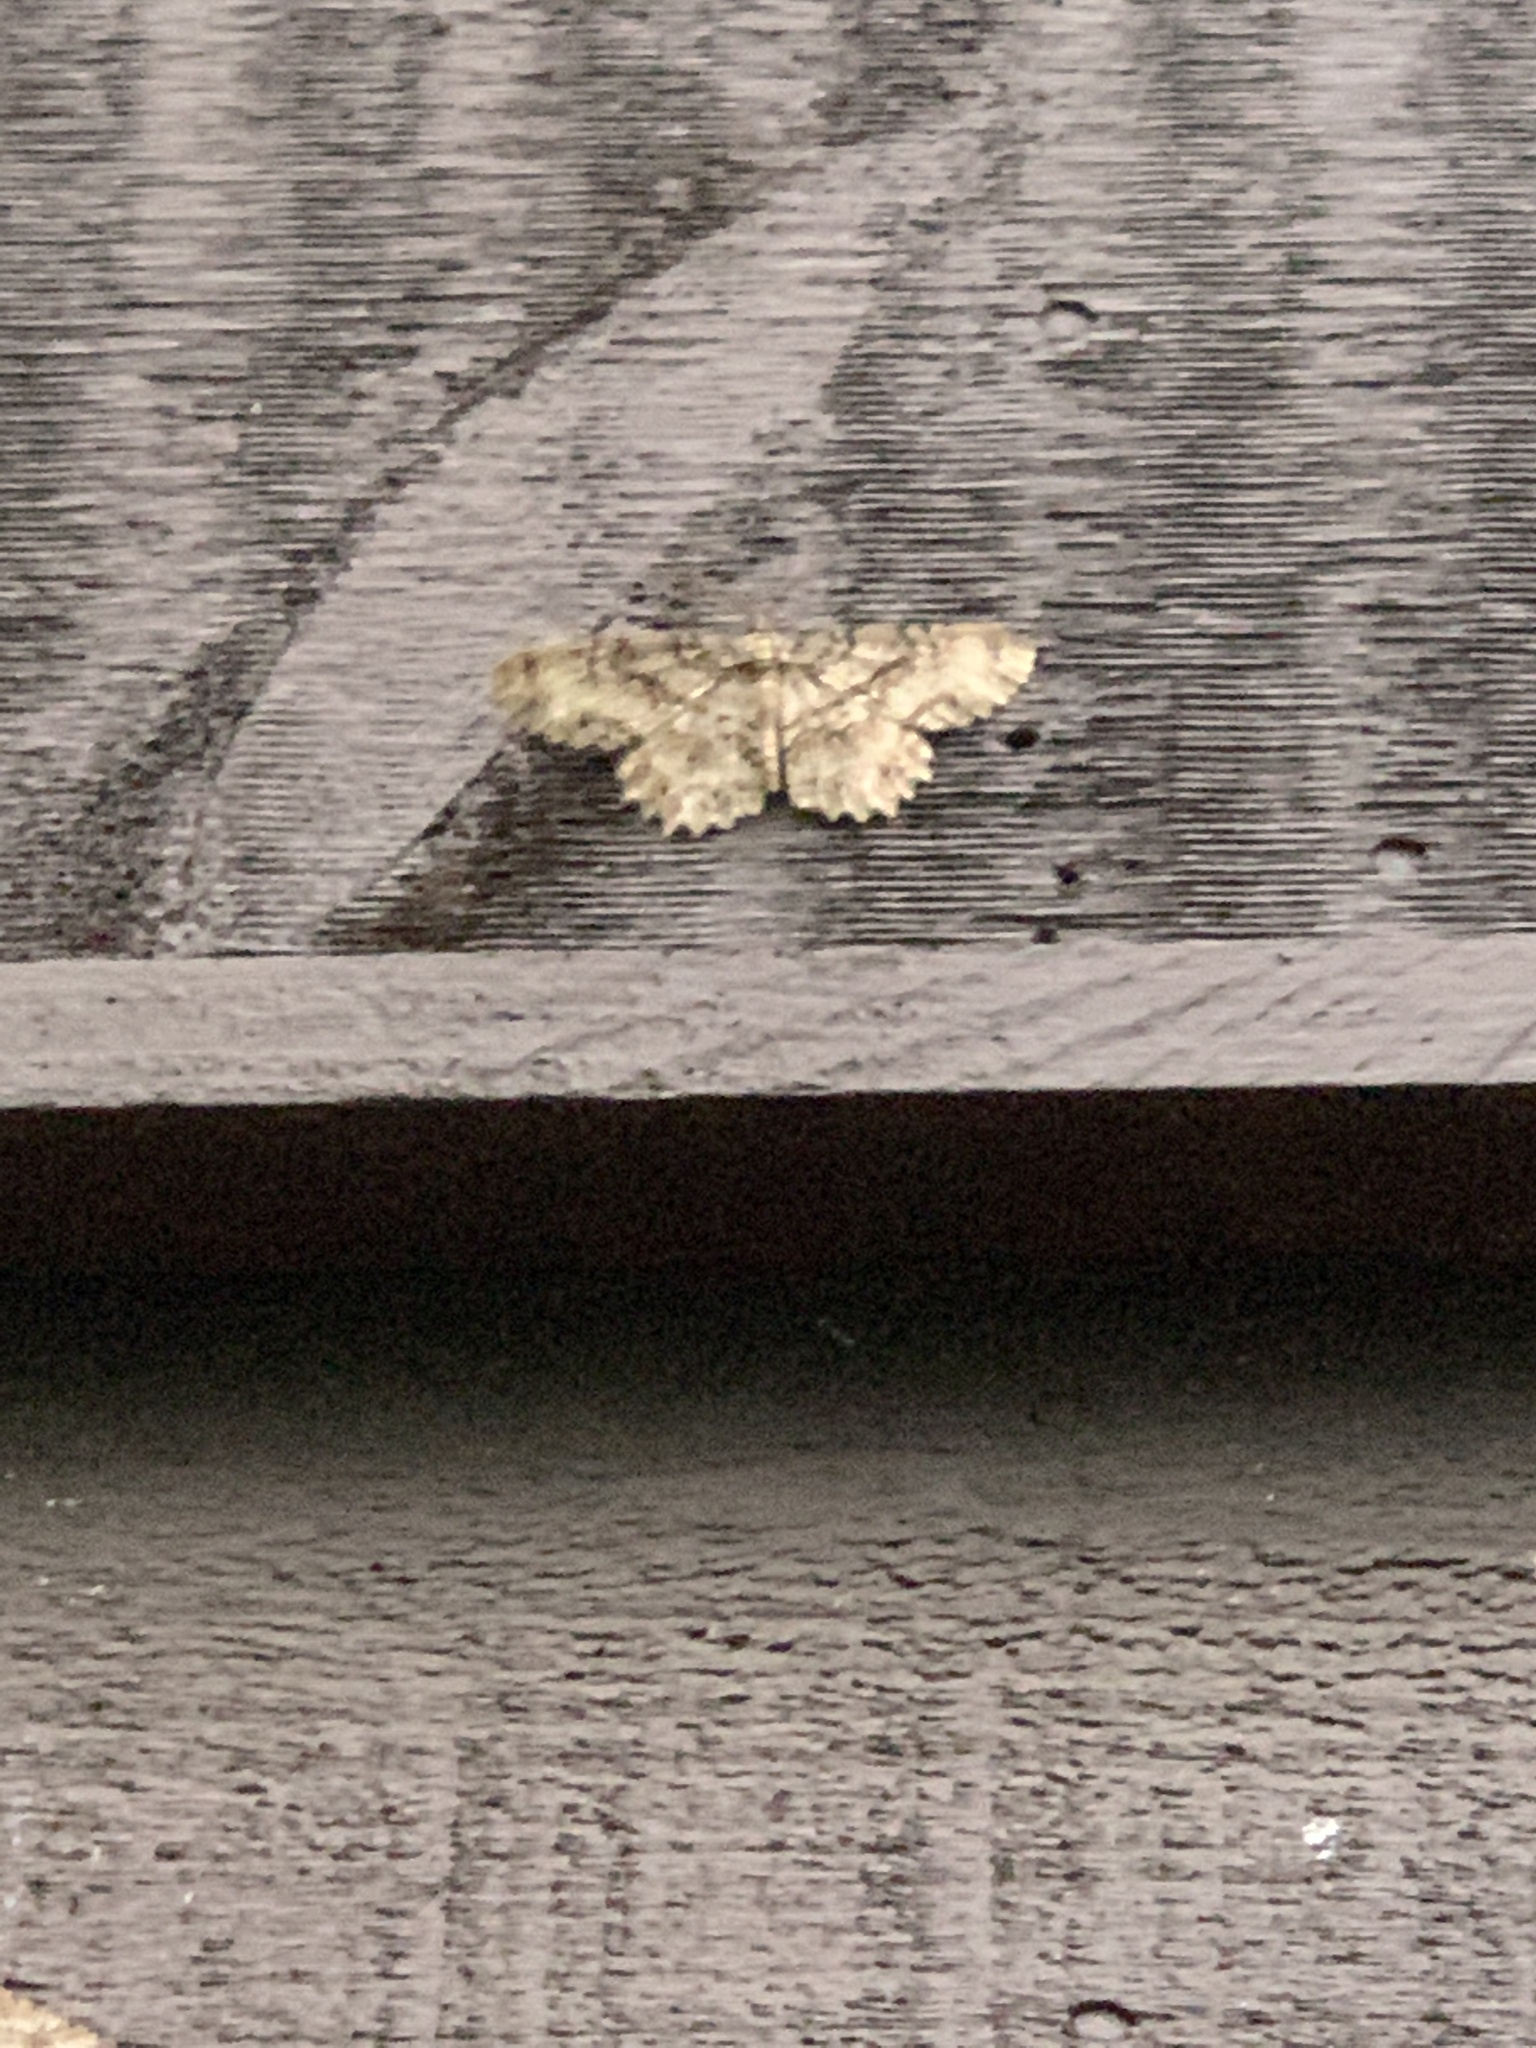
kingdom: Animalia
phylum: Arthropoda
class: Insecta
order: Lepidoptera
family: Geometridae
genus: Epimecis
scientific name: Epimecis hortaria
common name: Tulip-tree beauty
